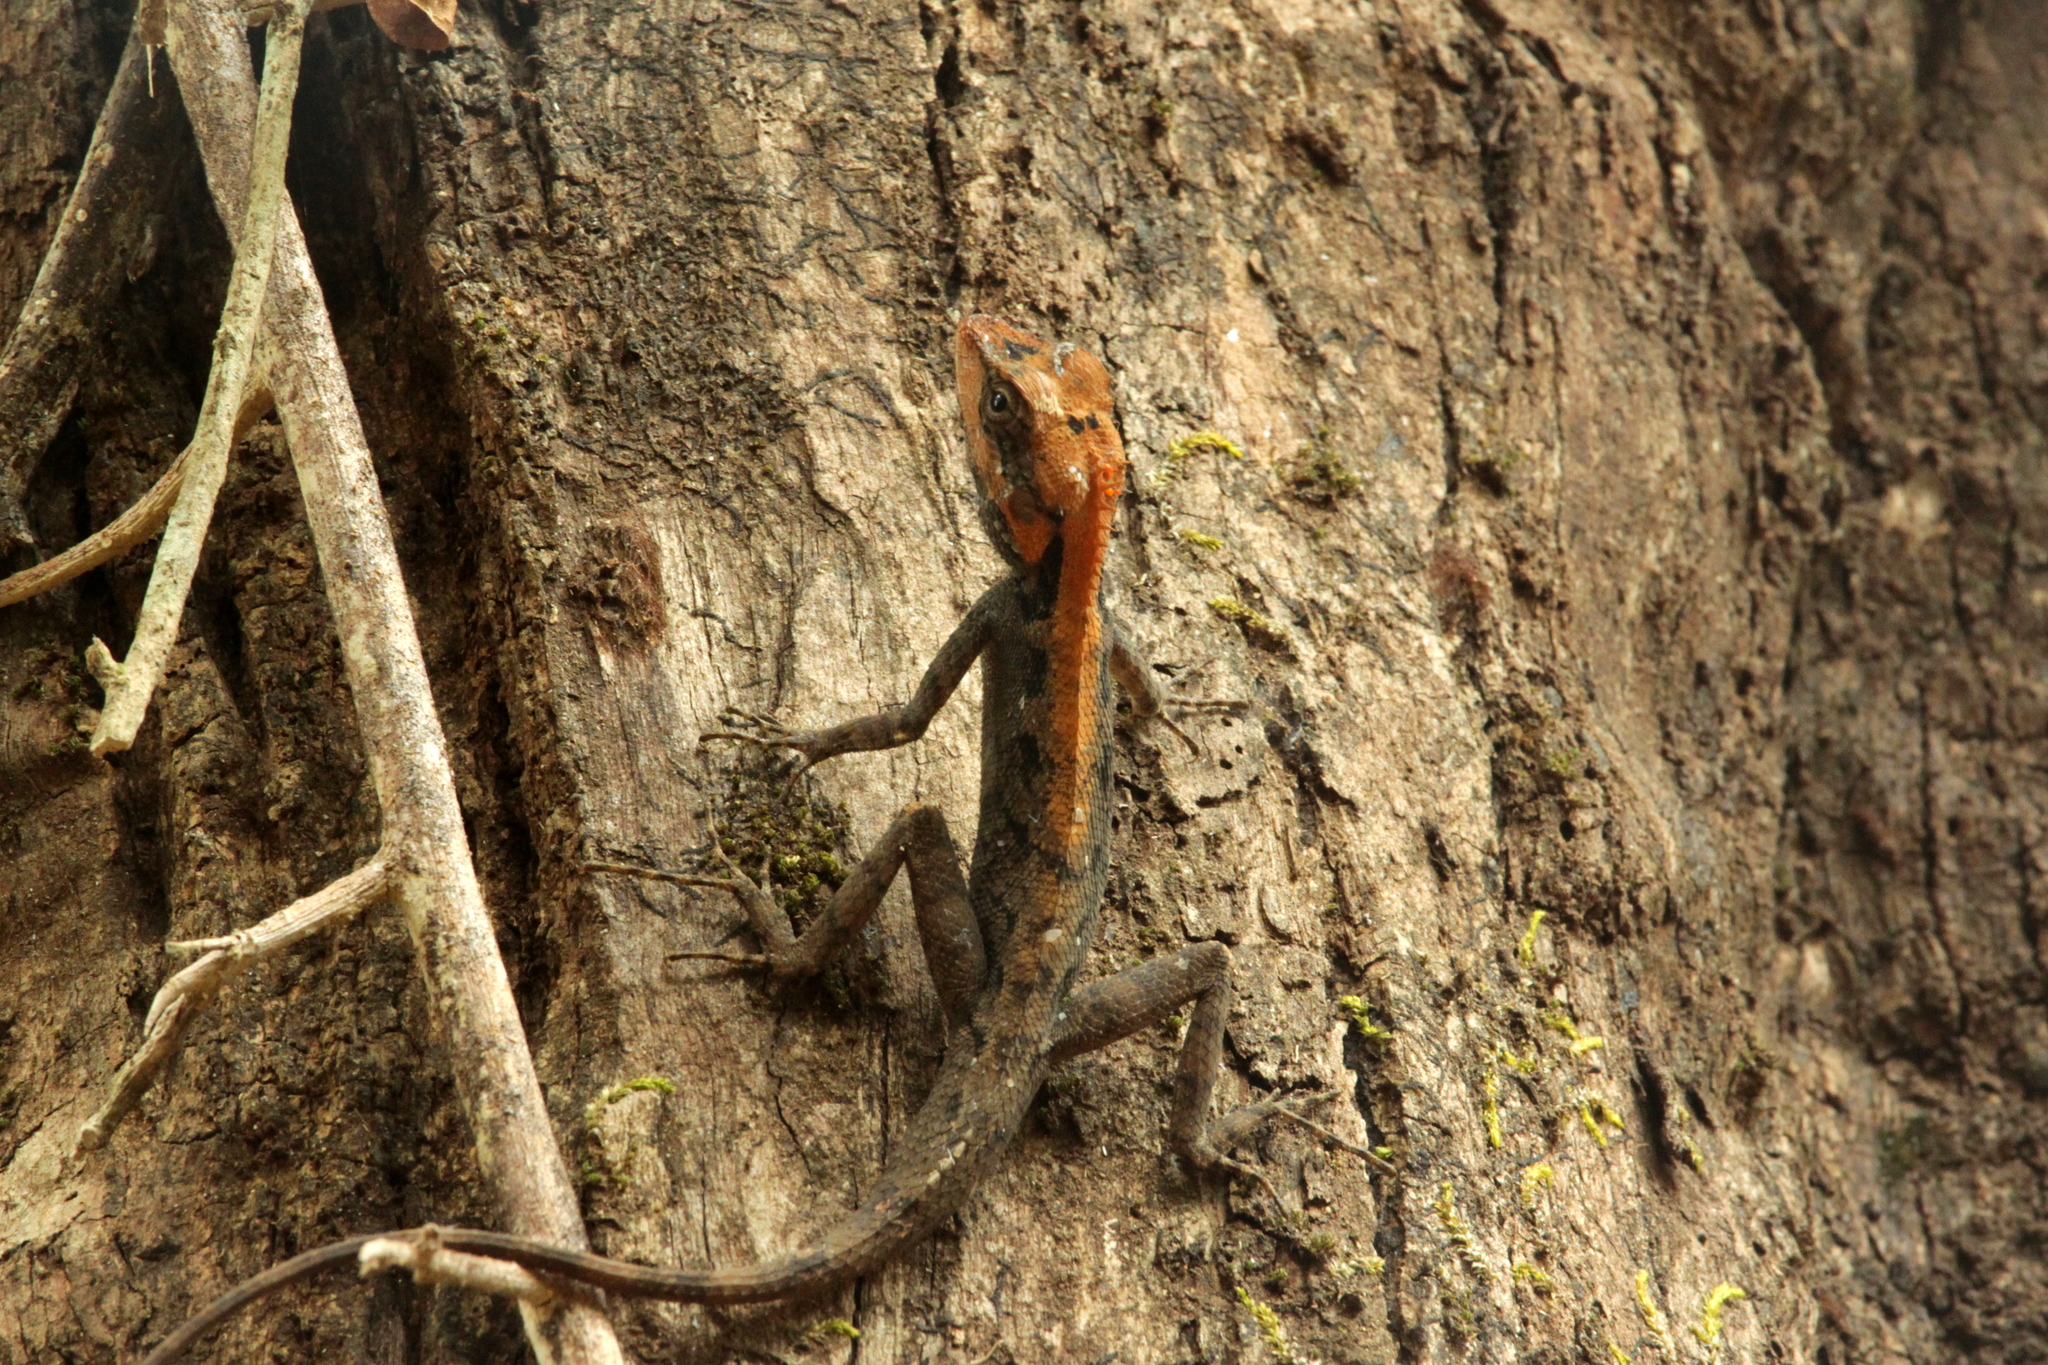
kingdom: Animalia
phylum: Chordata
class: Squamata
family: Agamidae
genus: Monilesaurus
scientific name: Monilesaurus rouxii
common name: Roux's forest lizard
